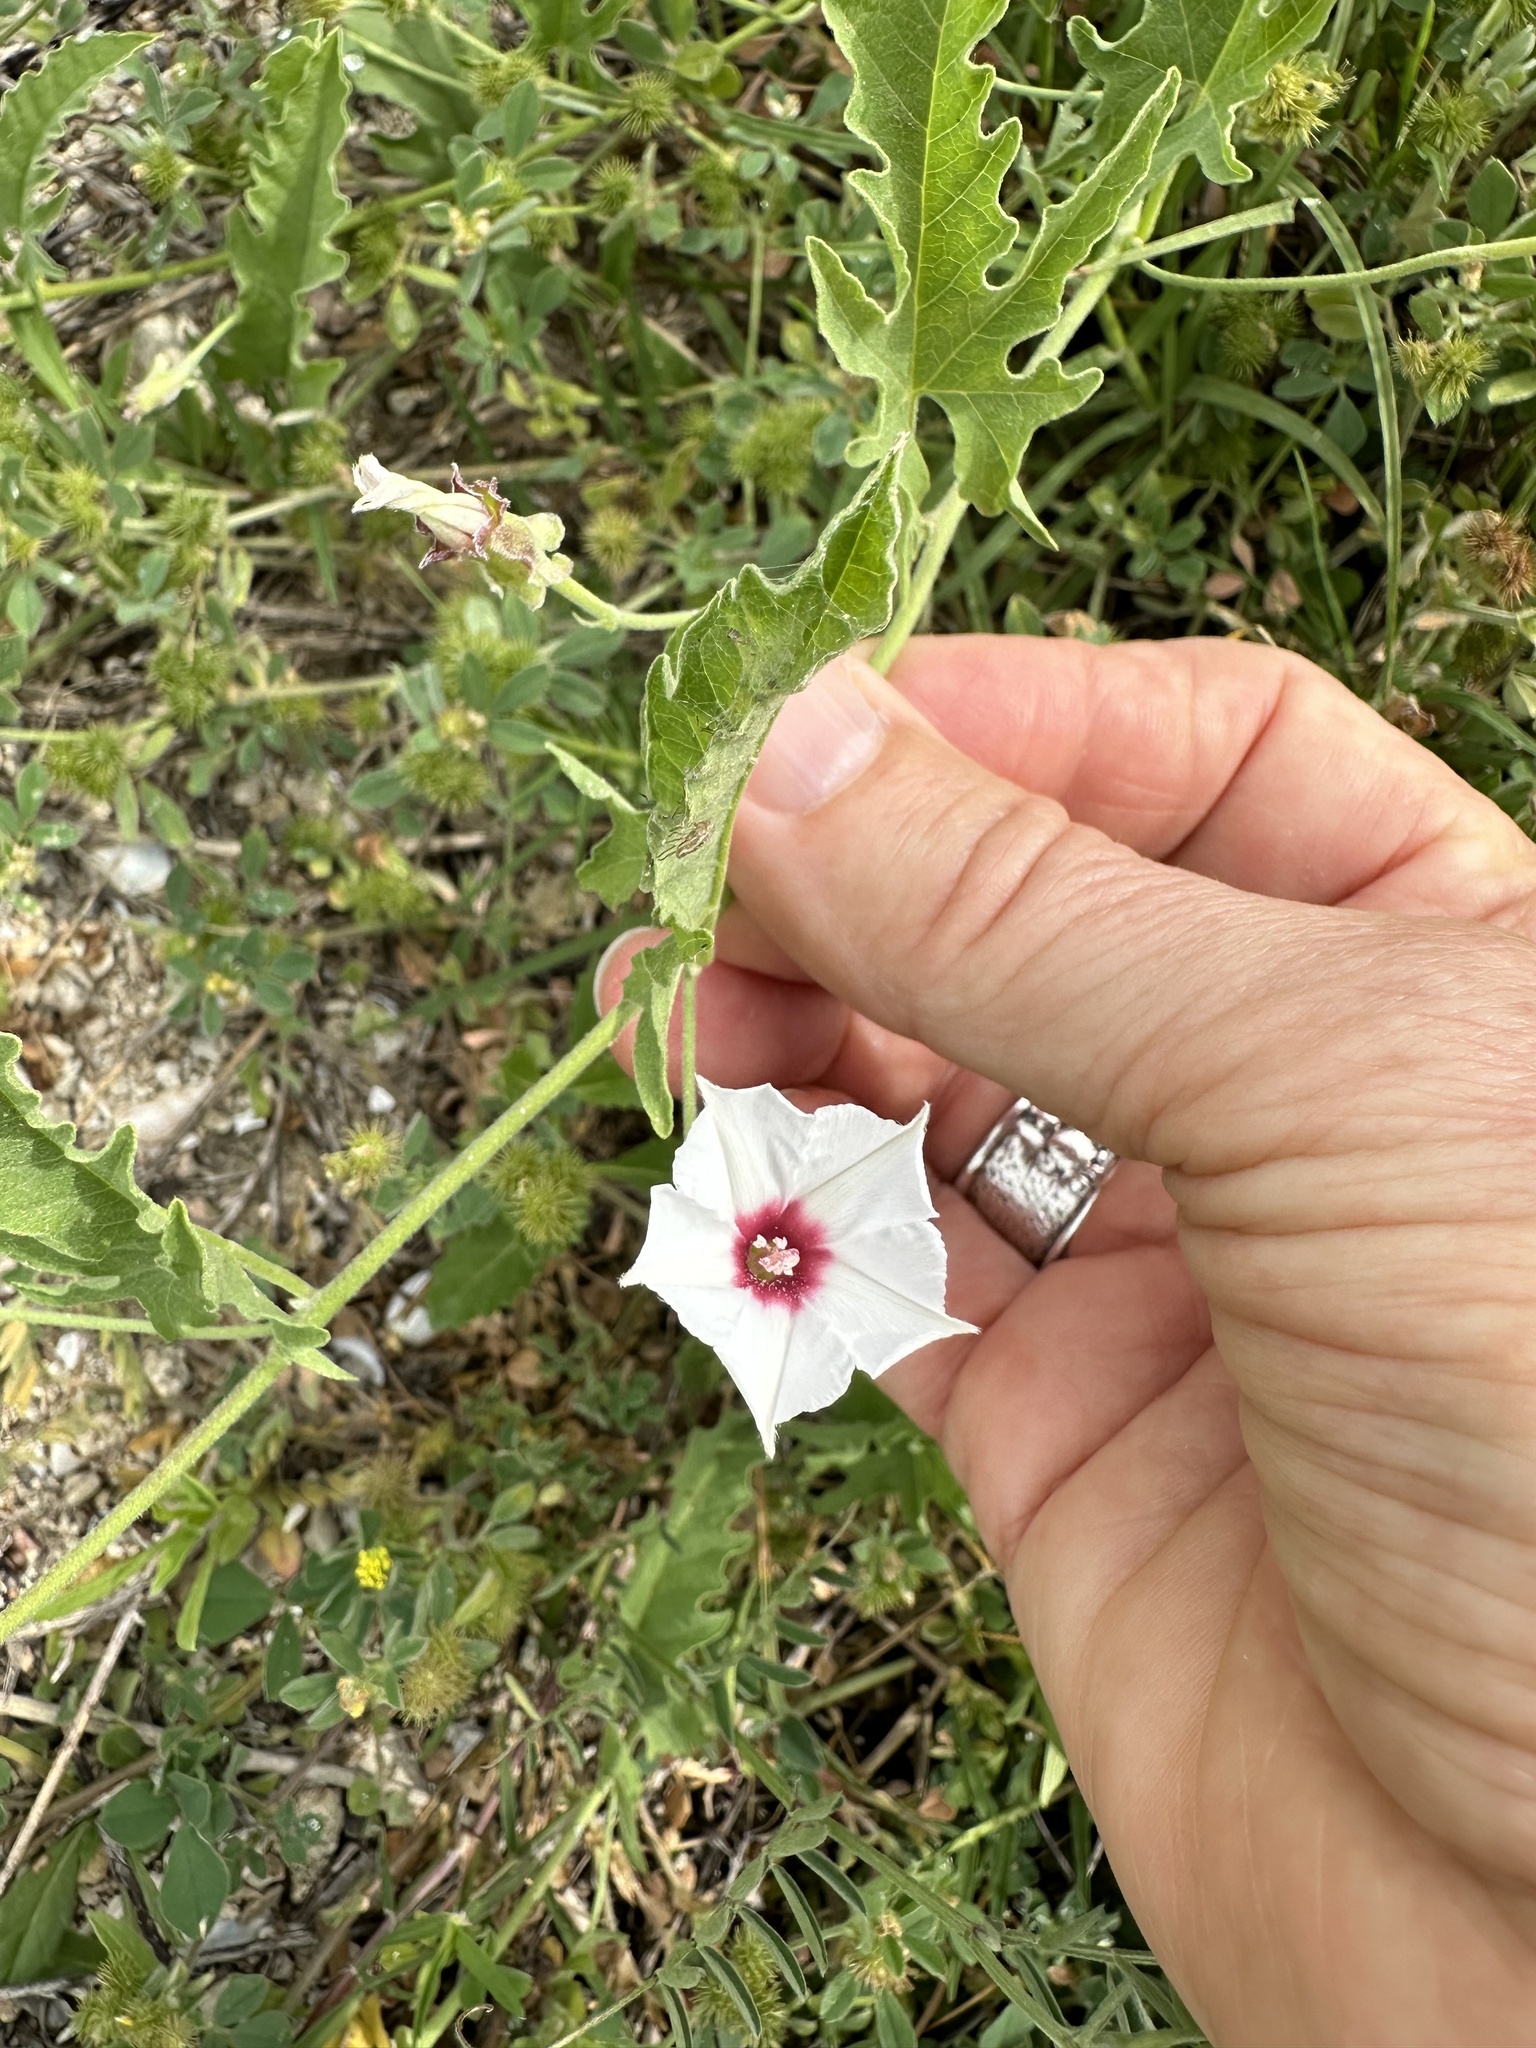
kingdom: Plantae
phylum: Tracheophyta
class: Magnoliopsida
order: Solanales
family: Convolvulaceae
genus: Convolvulus
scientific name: Convolvulus equitans
